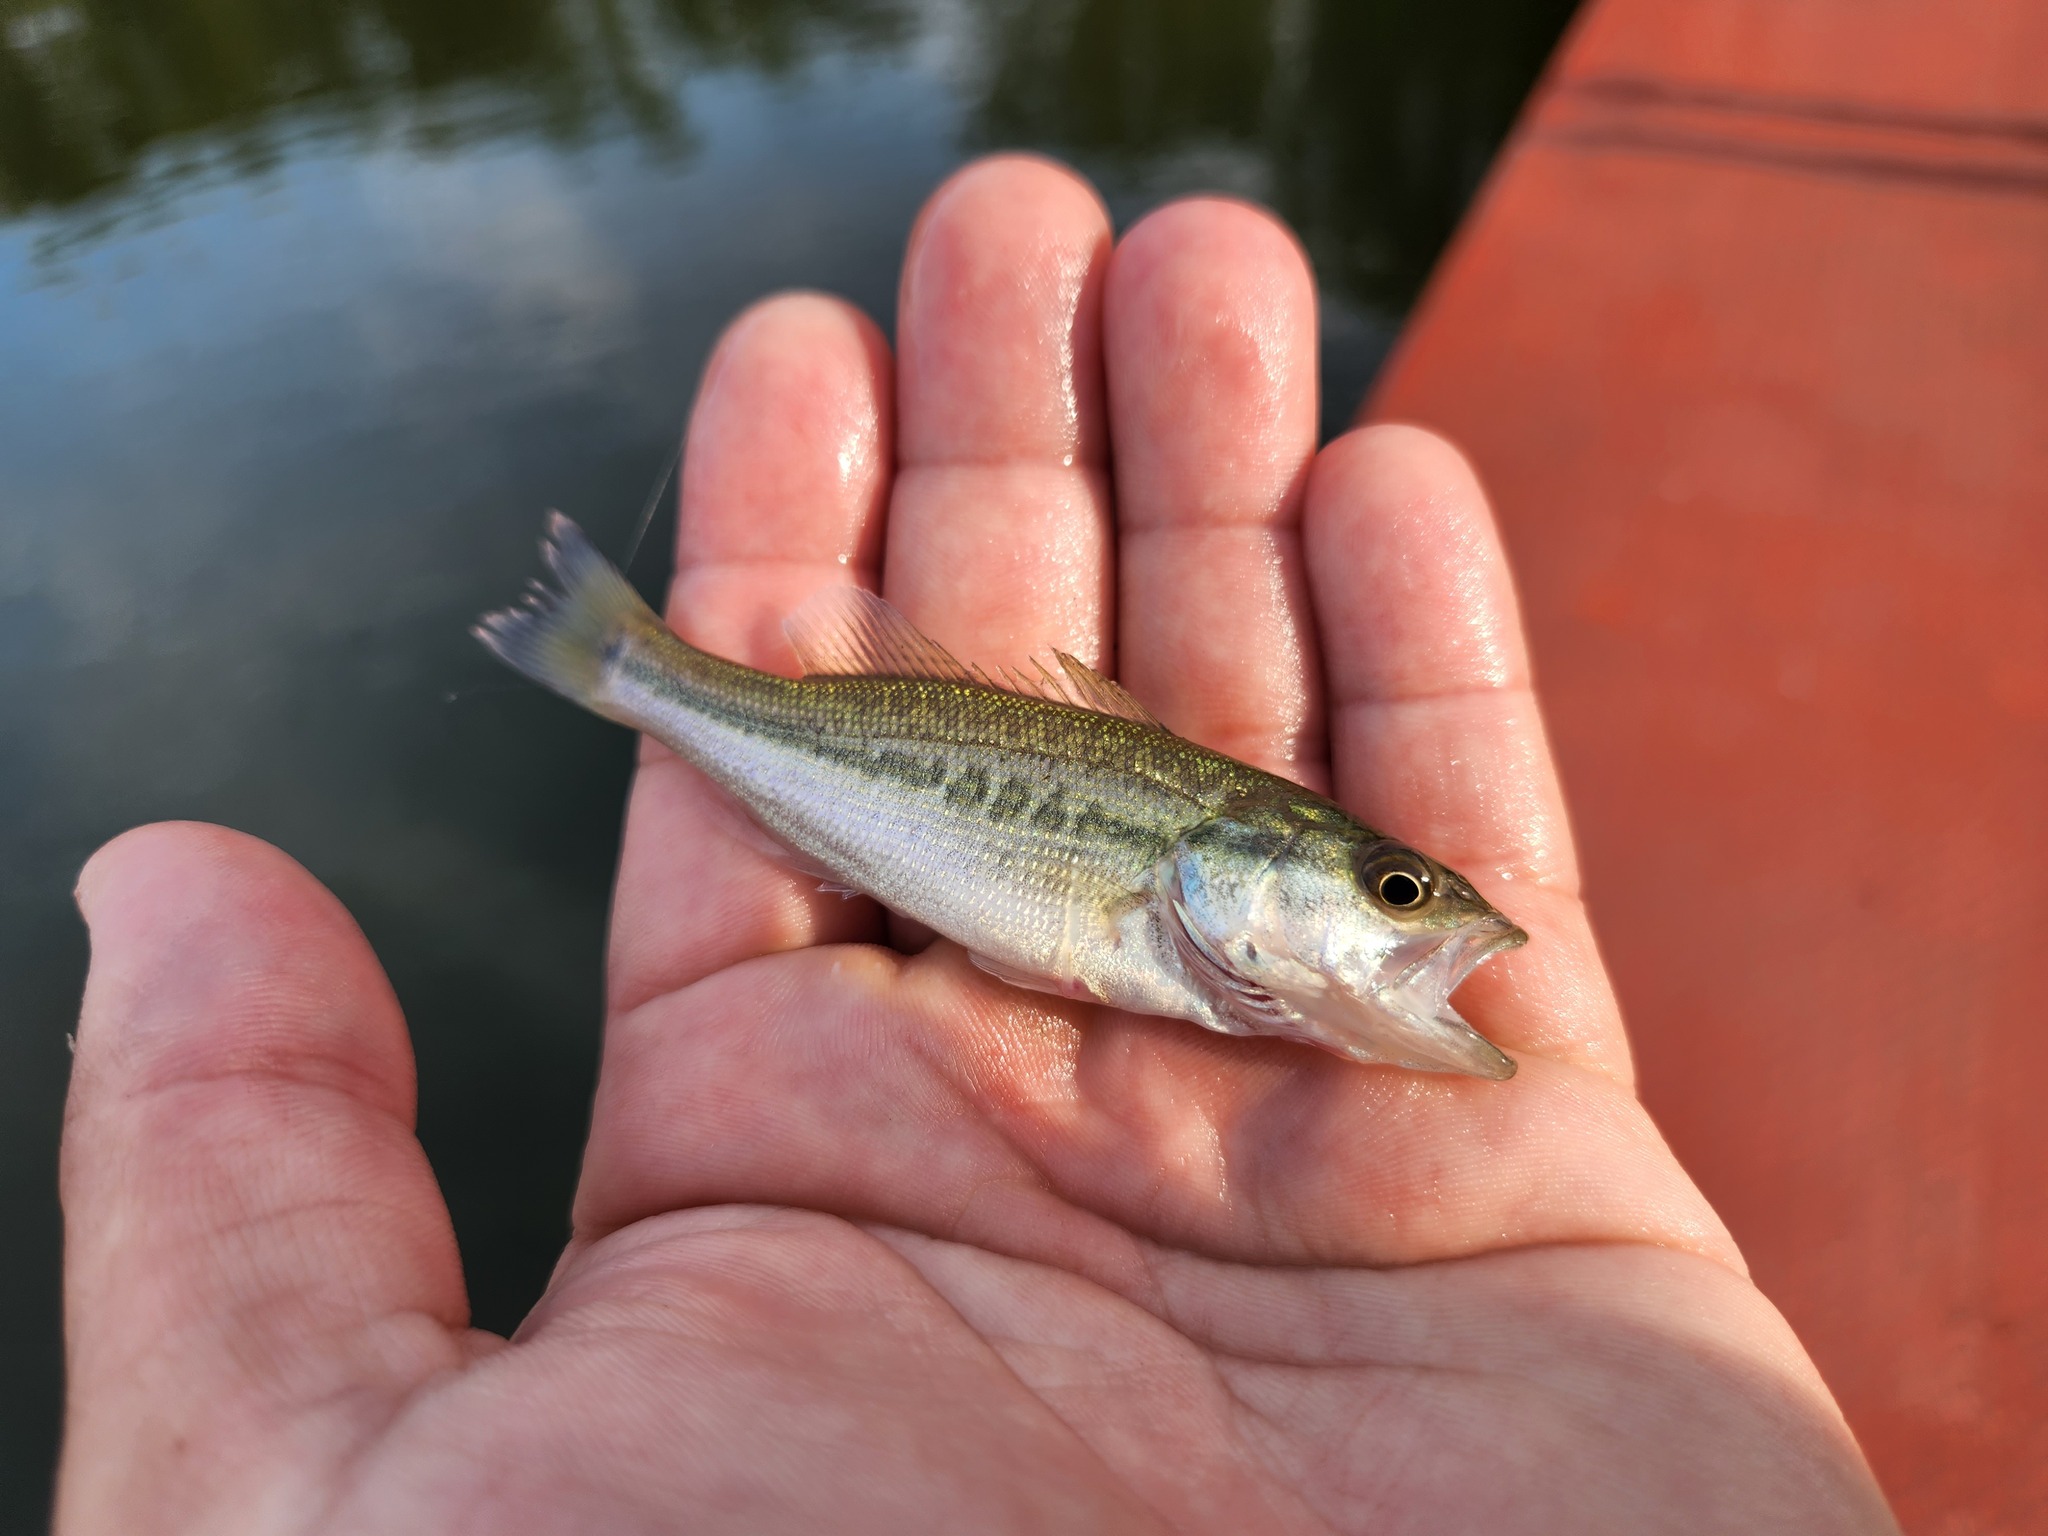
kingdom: Animalia
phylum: Chordata
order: Perciformes
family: Centrarchidae
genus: Micropterus
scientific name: Micropterus
